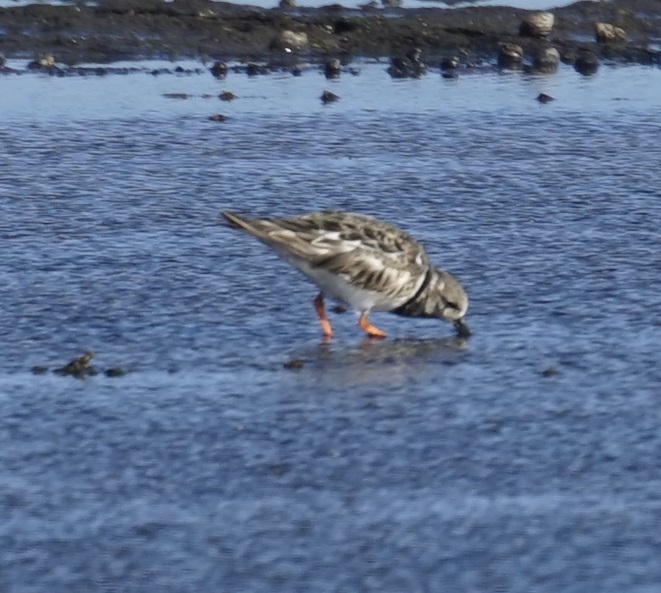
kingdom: Animalia
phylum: Chordata
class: Aves
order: Charadriiformes
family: Scolopacidae
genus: Arenaria
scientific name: Arenaria interpres
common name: Ruddy turnstone
